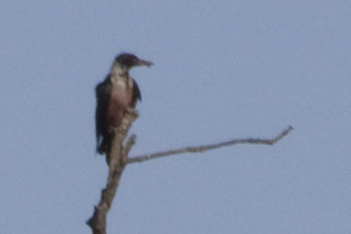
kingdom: Animalia
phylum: Chordata
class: Aves
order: Piciformes
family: Picidae
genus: Melanerpes
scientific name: Melanerpes lewis
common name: Lewis's woodpecker
